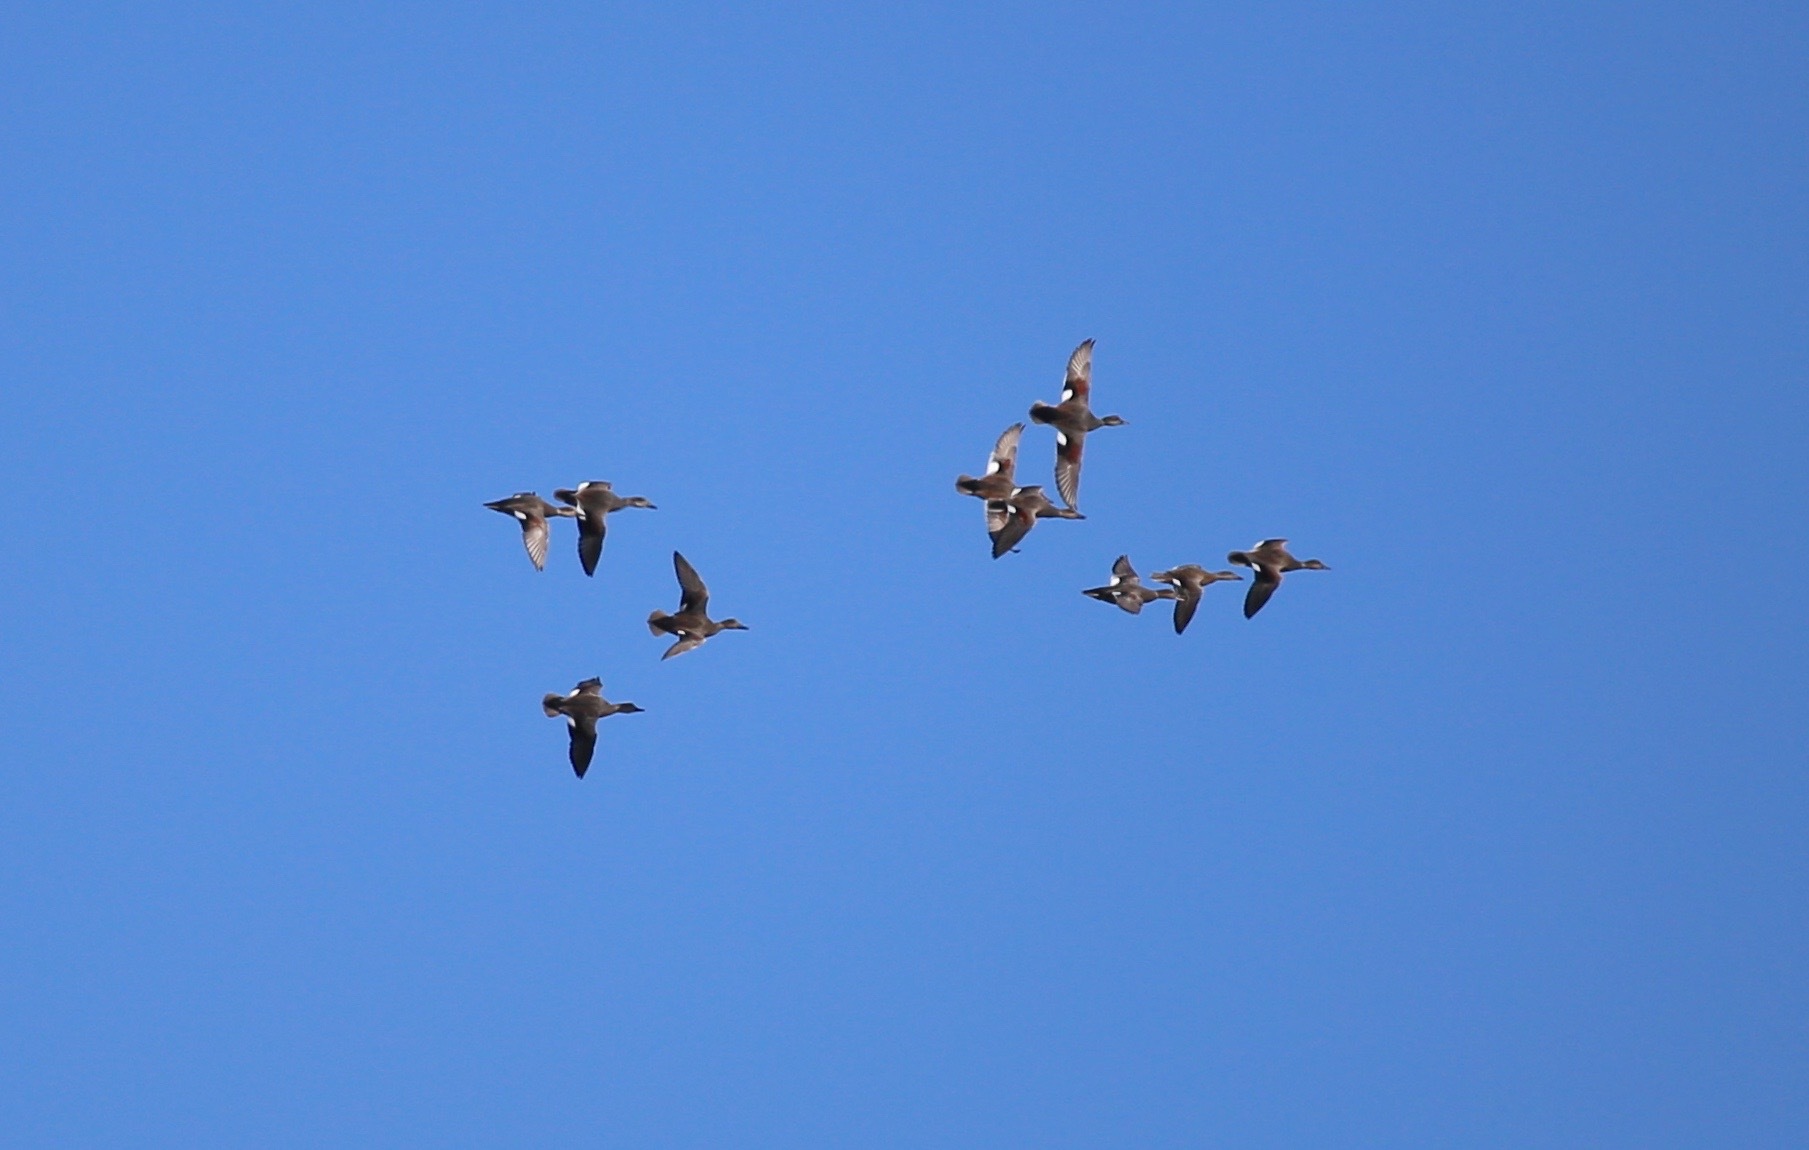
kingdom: Animalia
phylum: Chordata
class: Aves
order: Anseriformes
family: Anatidae
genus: Mareca
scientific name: Mareca strepera
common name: Gadwall
